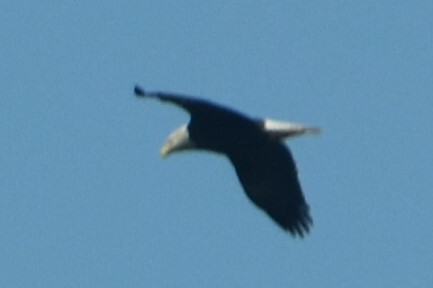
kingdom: Animalia
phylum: Chordata
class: Aves
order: Accipitriformes
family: Accipitridae
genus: Haliaeetus
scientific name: Haliaeetus leucocephalus
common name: Bald eagle
